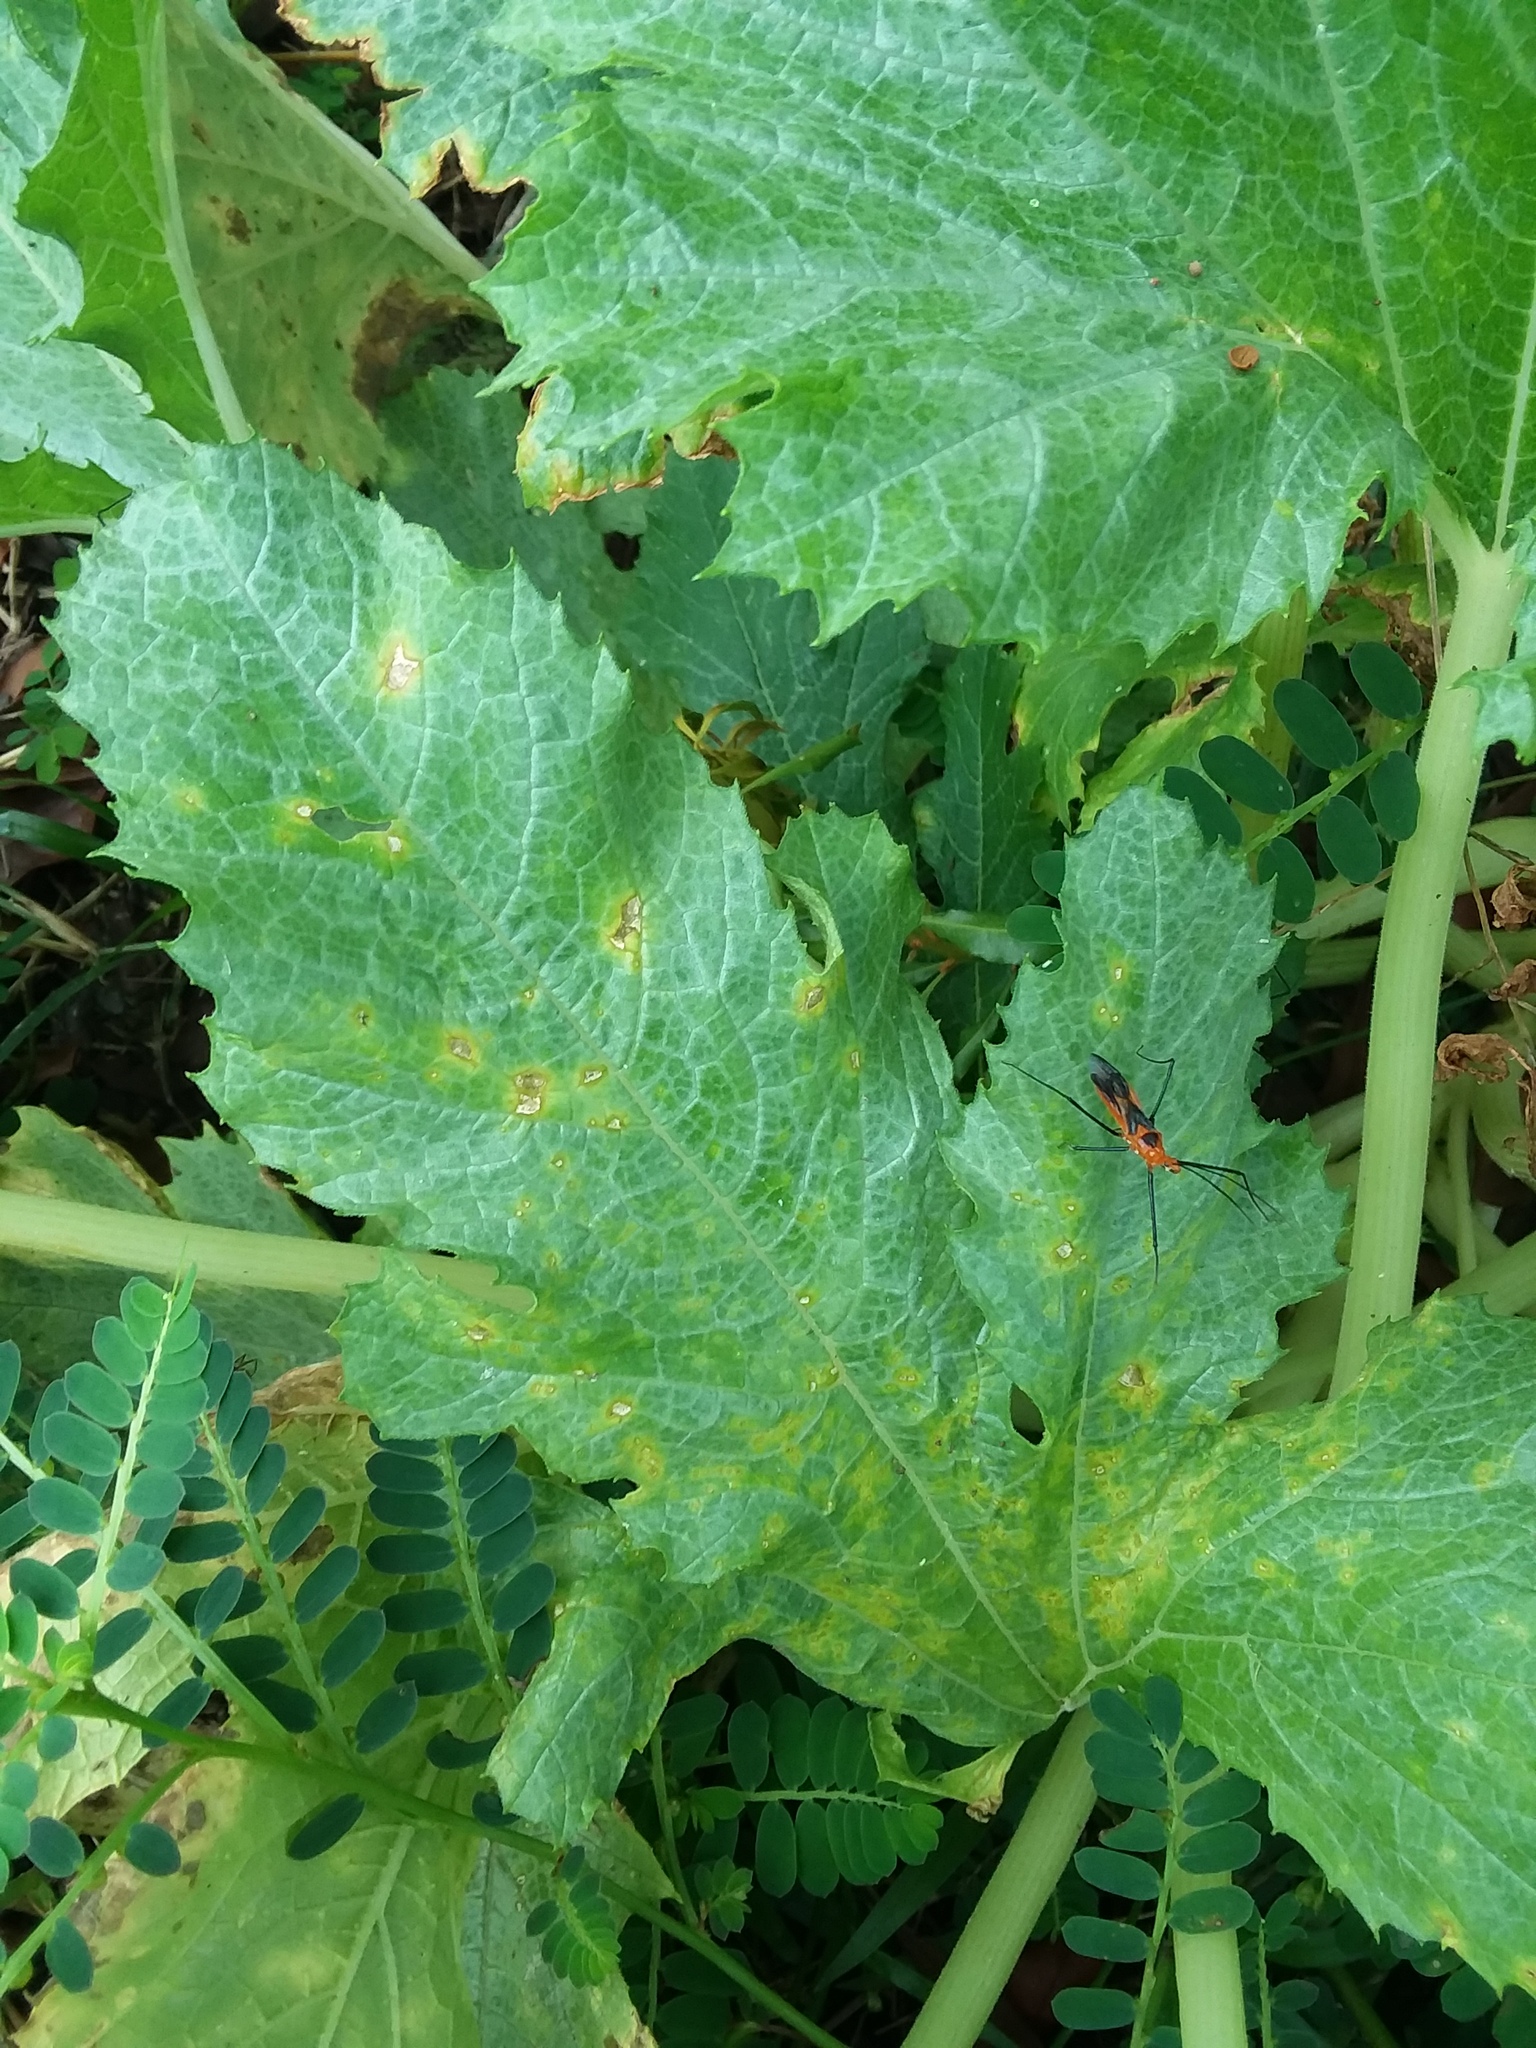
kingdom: Animalia
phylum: Arthropoda
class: Insecta
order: Hemiptera
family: Reduviidae
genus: Zelus
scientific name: Zelus longipes
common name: Milkweed assassin bug
